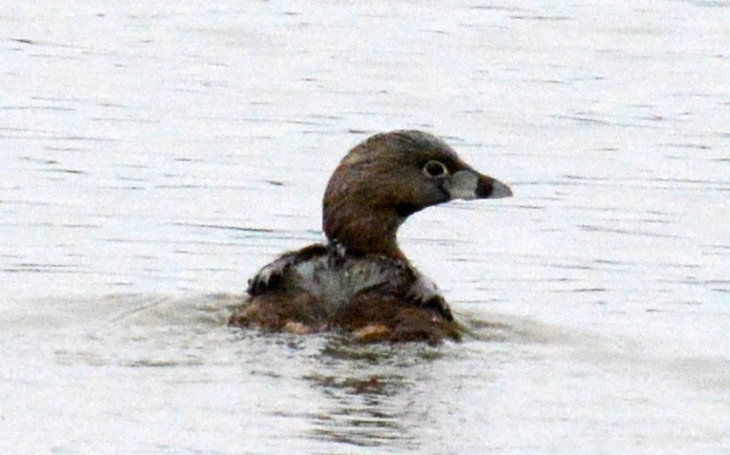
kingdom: Animalia
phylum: Chordata
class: Aves
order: Podicipediformes
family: Podicipedidae
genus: Podilymbus
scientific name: Podilymbus podiceps
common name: Pied-billed grebe
